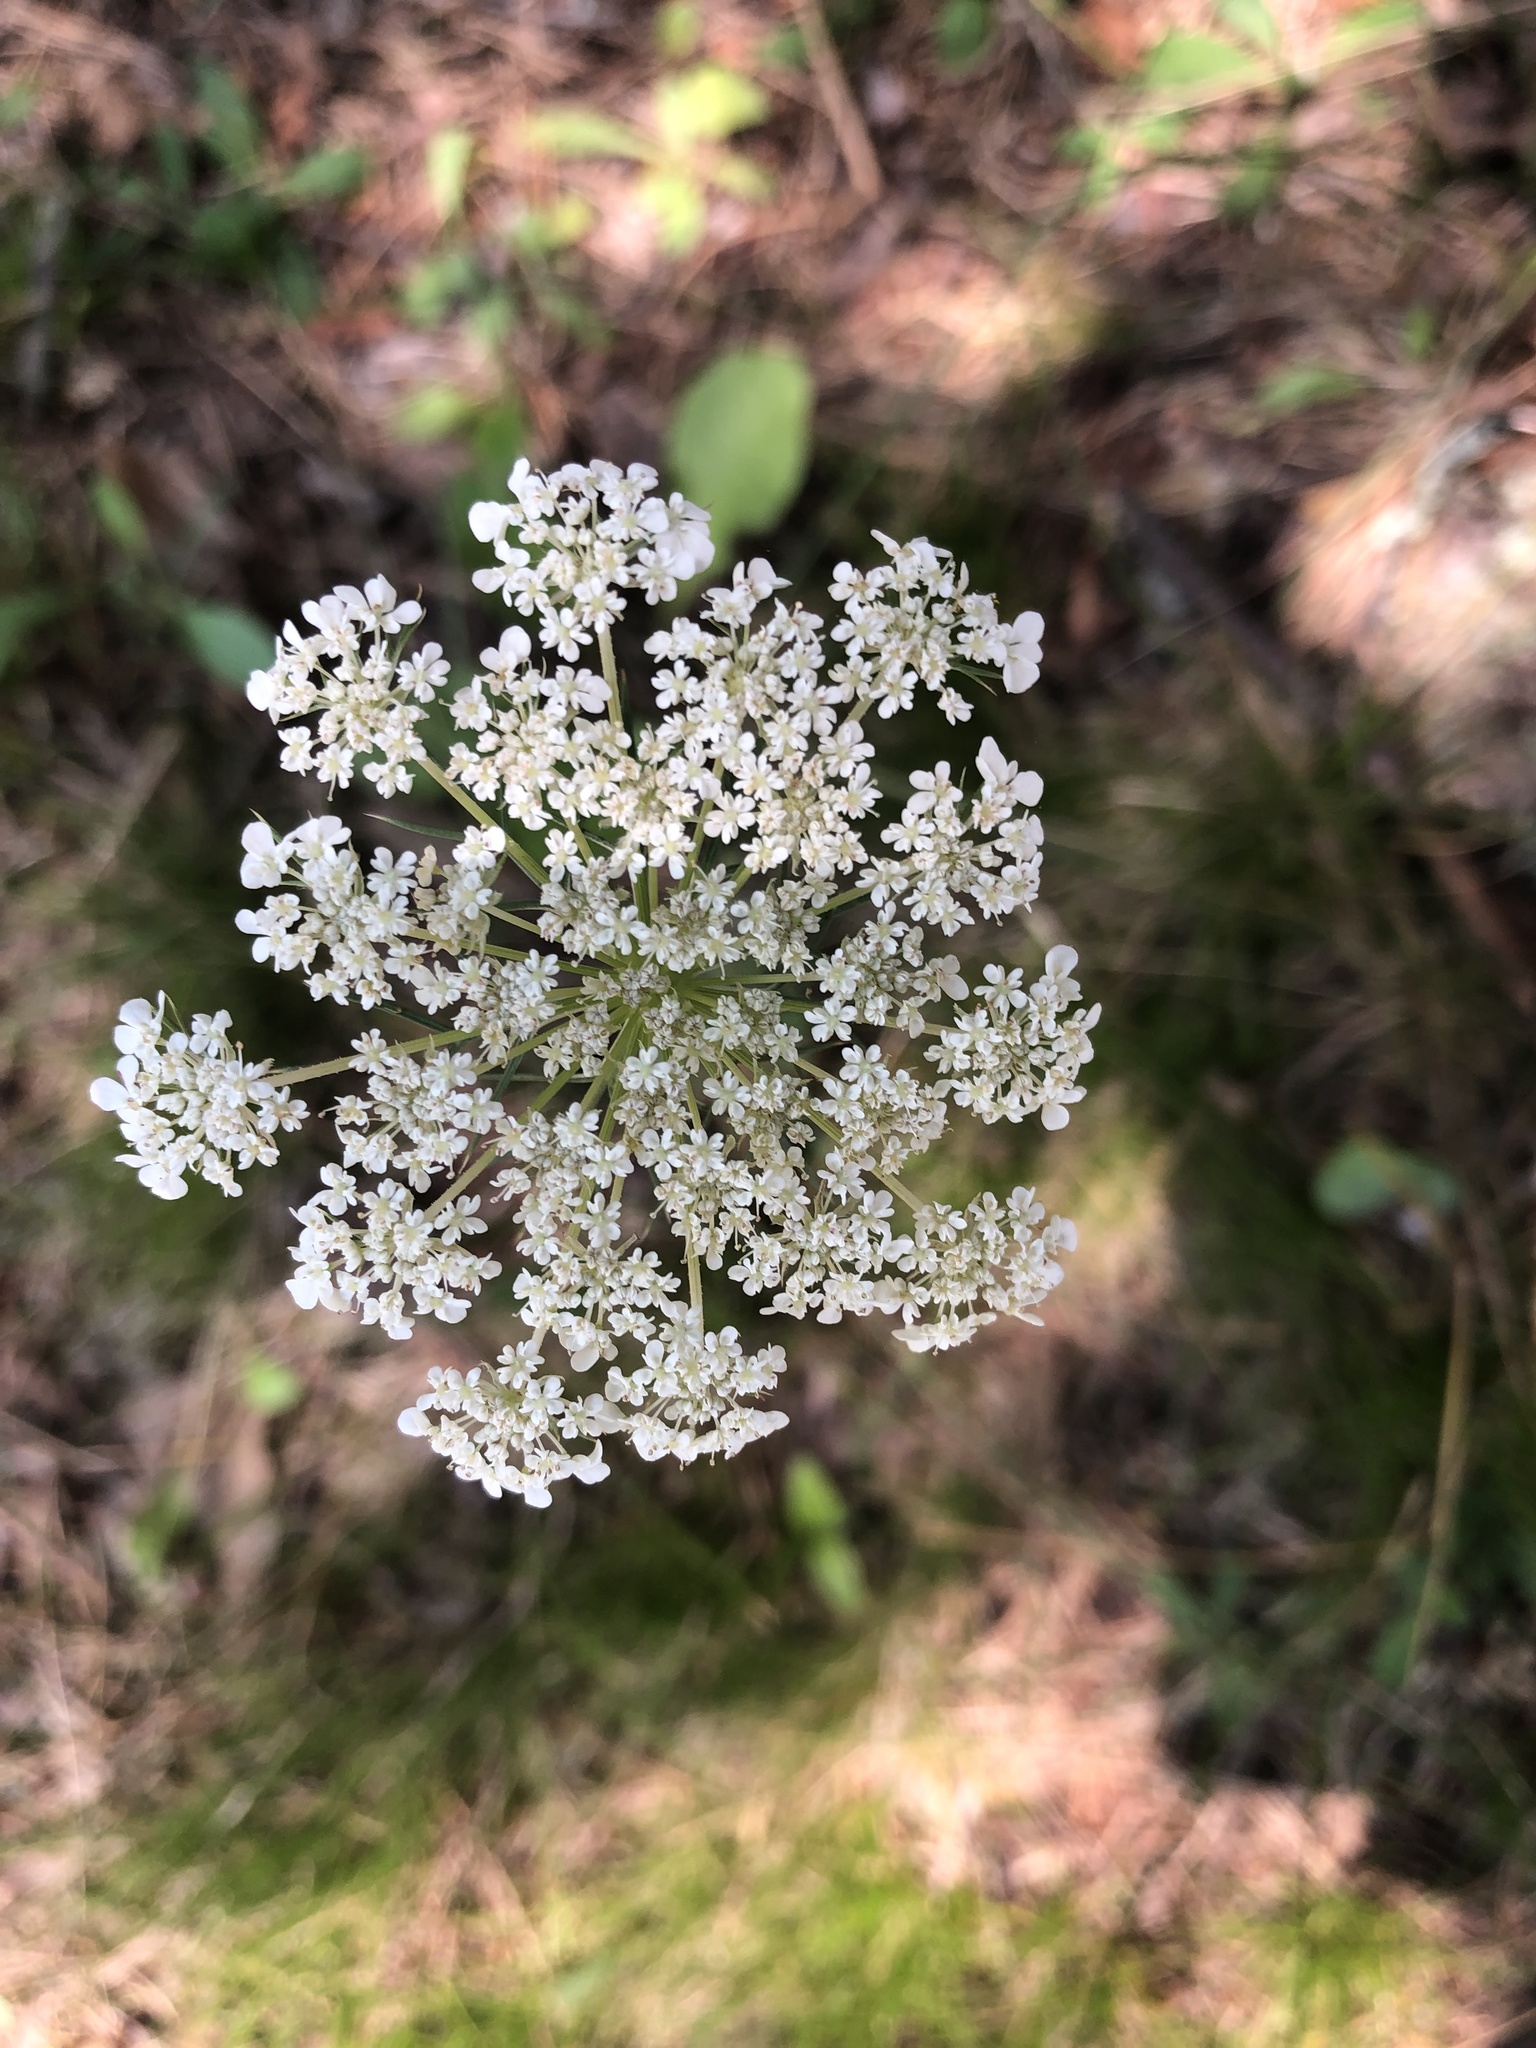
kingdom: Plantae
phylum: Tracheophyta
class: Magnoliopsida
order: Apiales
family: Apiaceae
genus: Daucus
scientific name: Daucus carota
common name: Wild carrot
